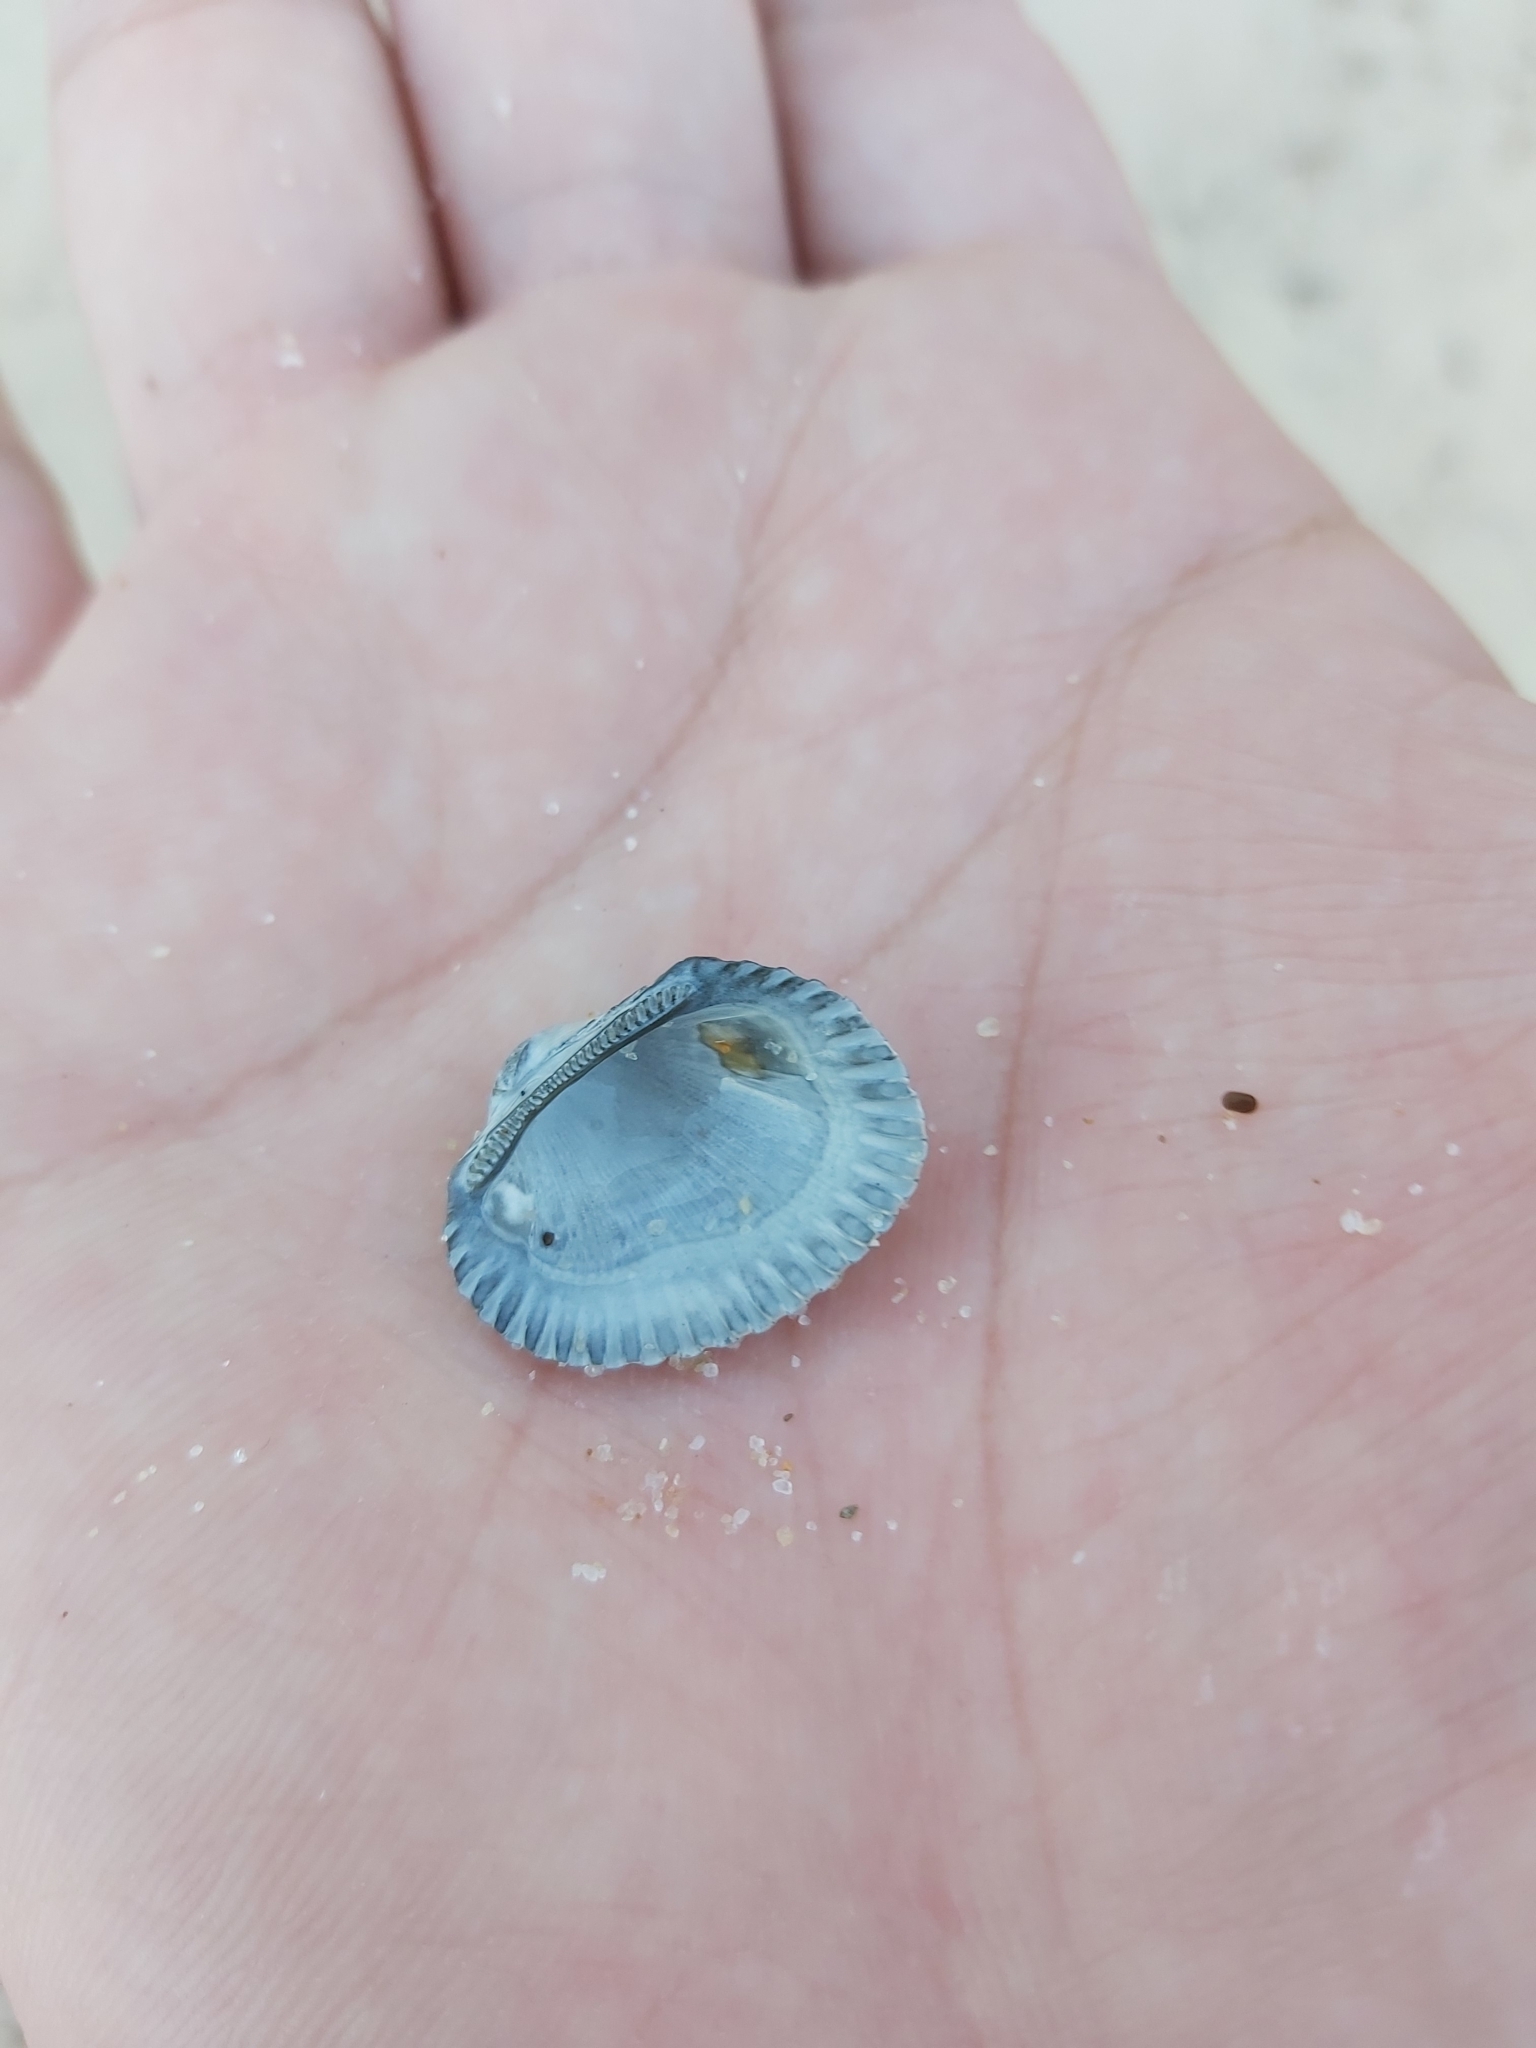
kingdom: Animalia
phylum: Mollusca
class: Bivalvia
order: Arcida
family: Arcidae
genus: Anadara
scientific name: Anadara trapezia
